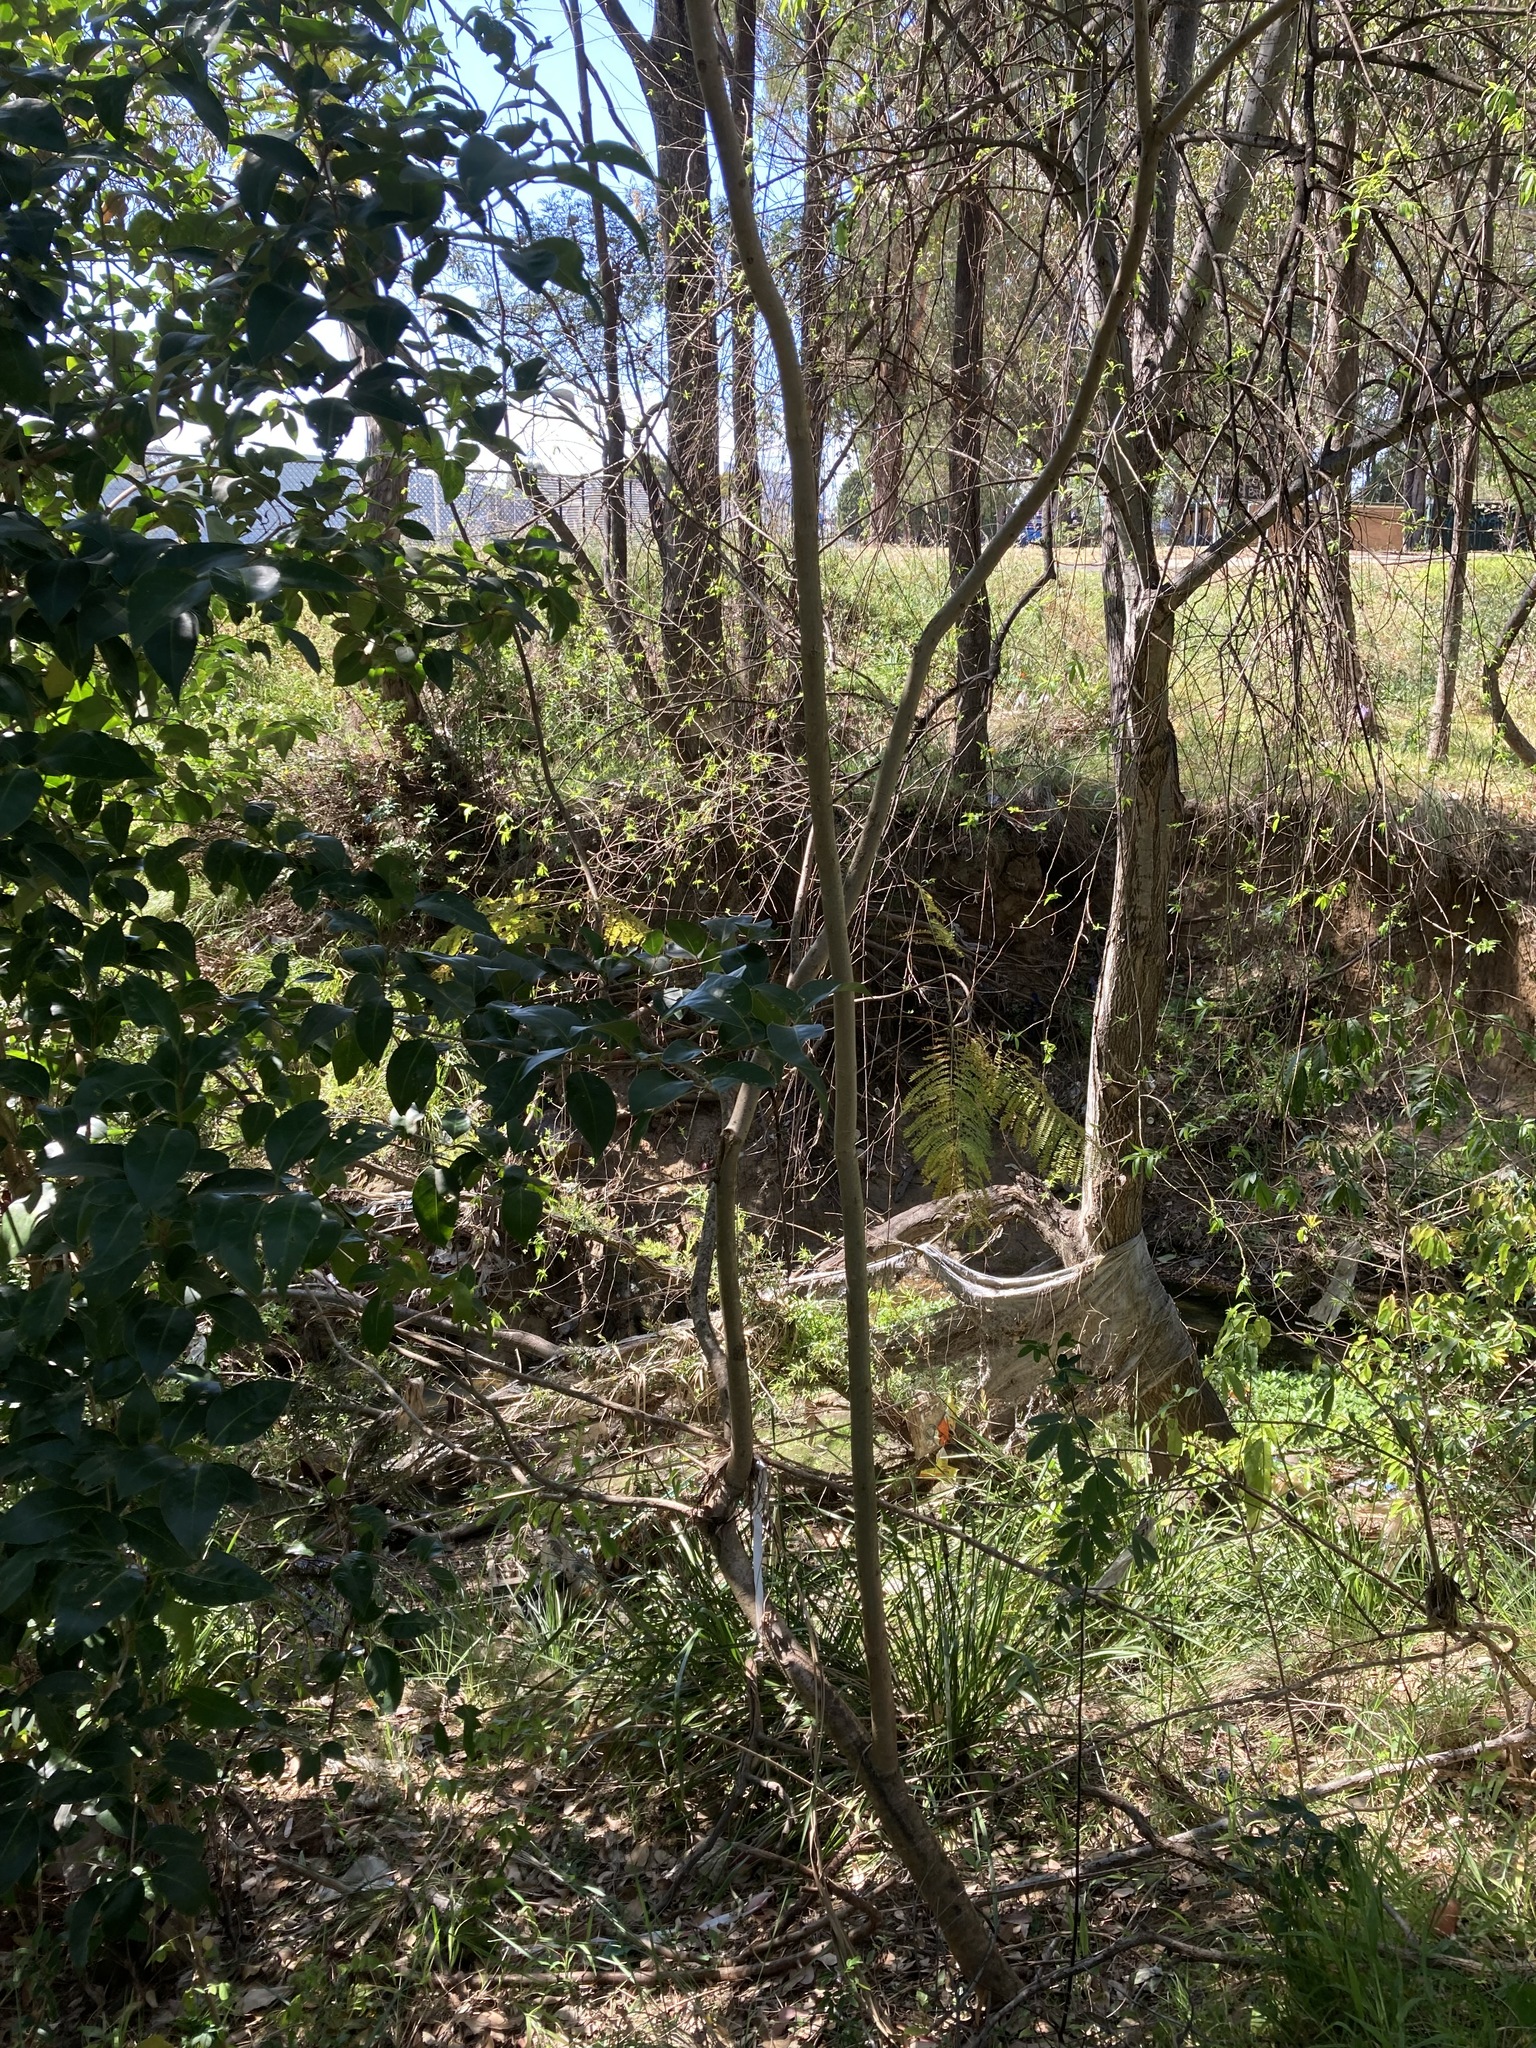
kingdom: Plantae
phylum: Tracheophyta
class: Magnoliopsida
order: Lamiales
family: Bignoniaceae
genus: Jacaranda
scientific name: Jacaranda mimosifolia
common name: Black poui
